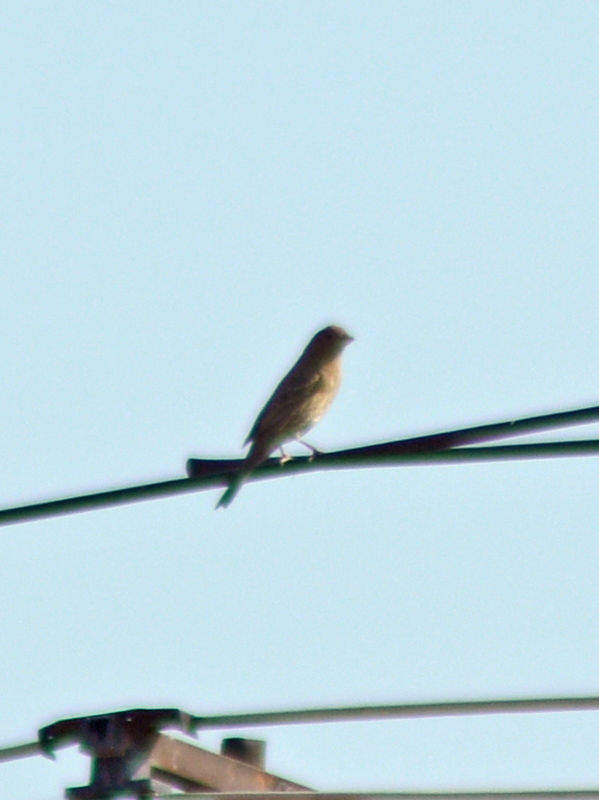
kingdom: Animalia
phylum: Chordata
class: Aves
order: Passeriformes
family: Fringillidae
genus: Haemorhous
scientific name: Haemorhous mexicanus
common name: House finch
